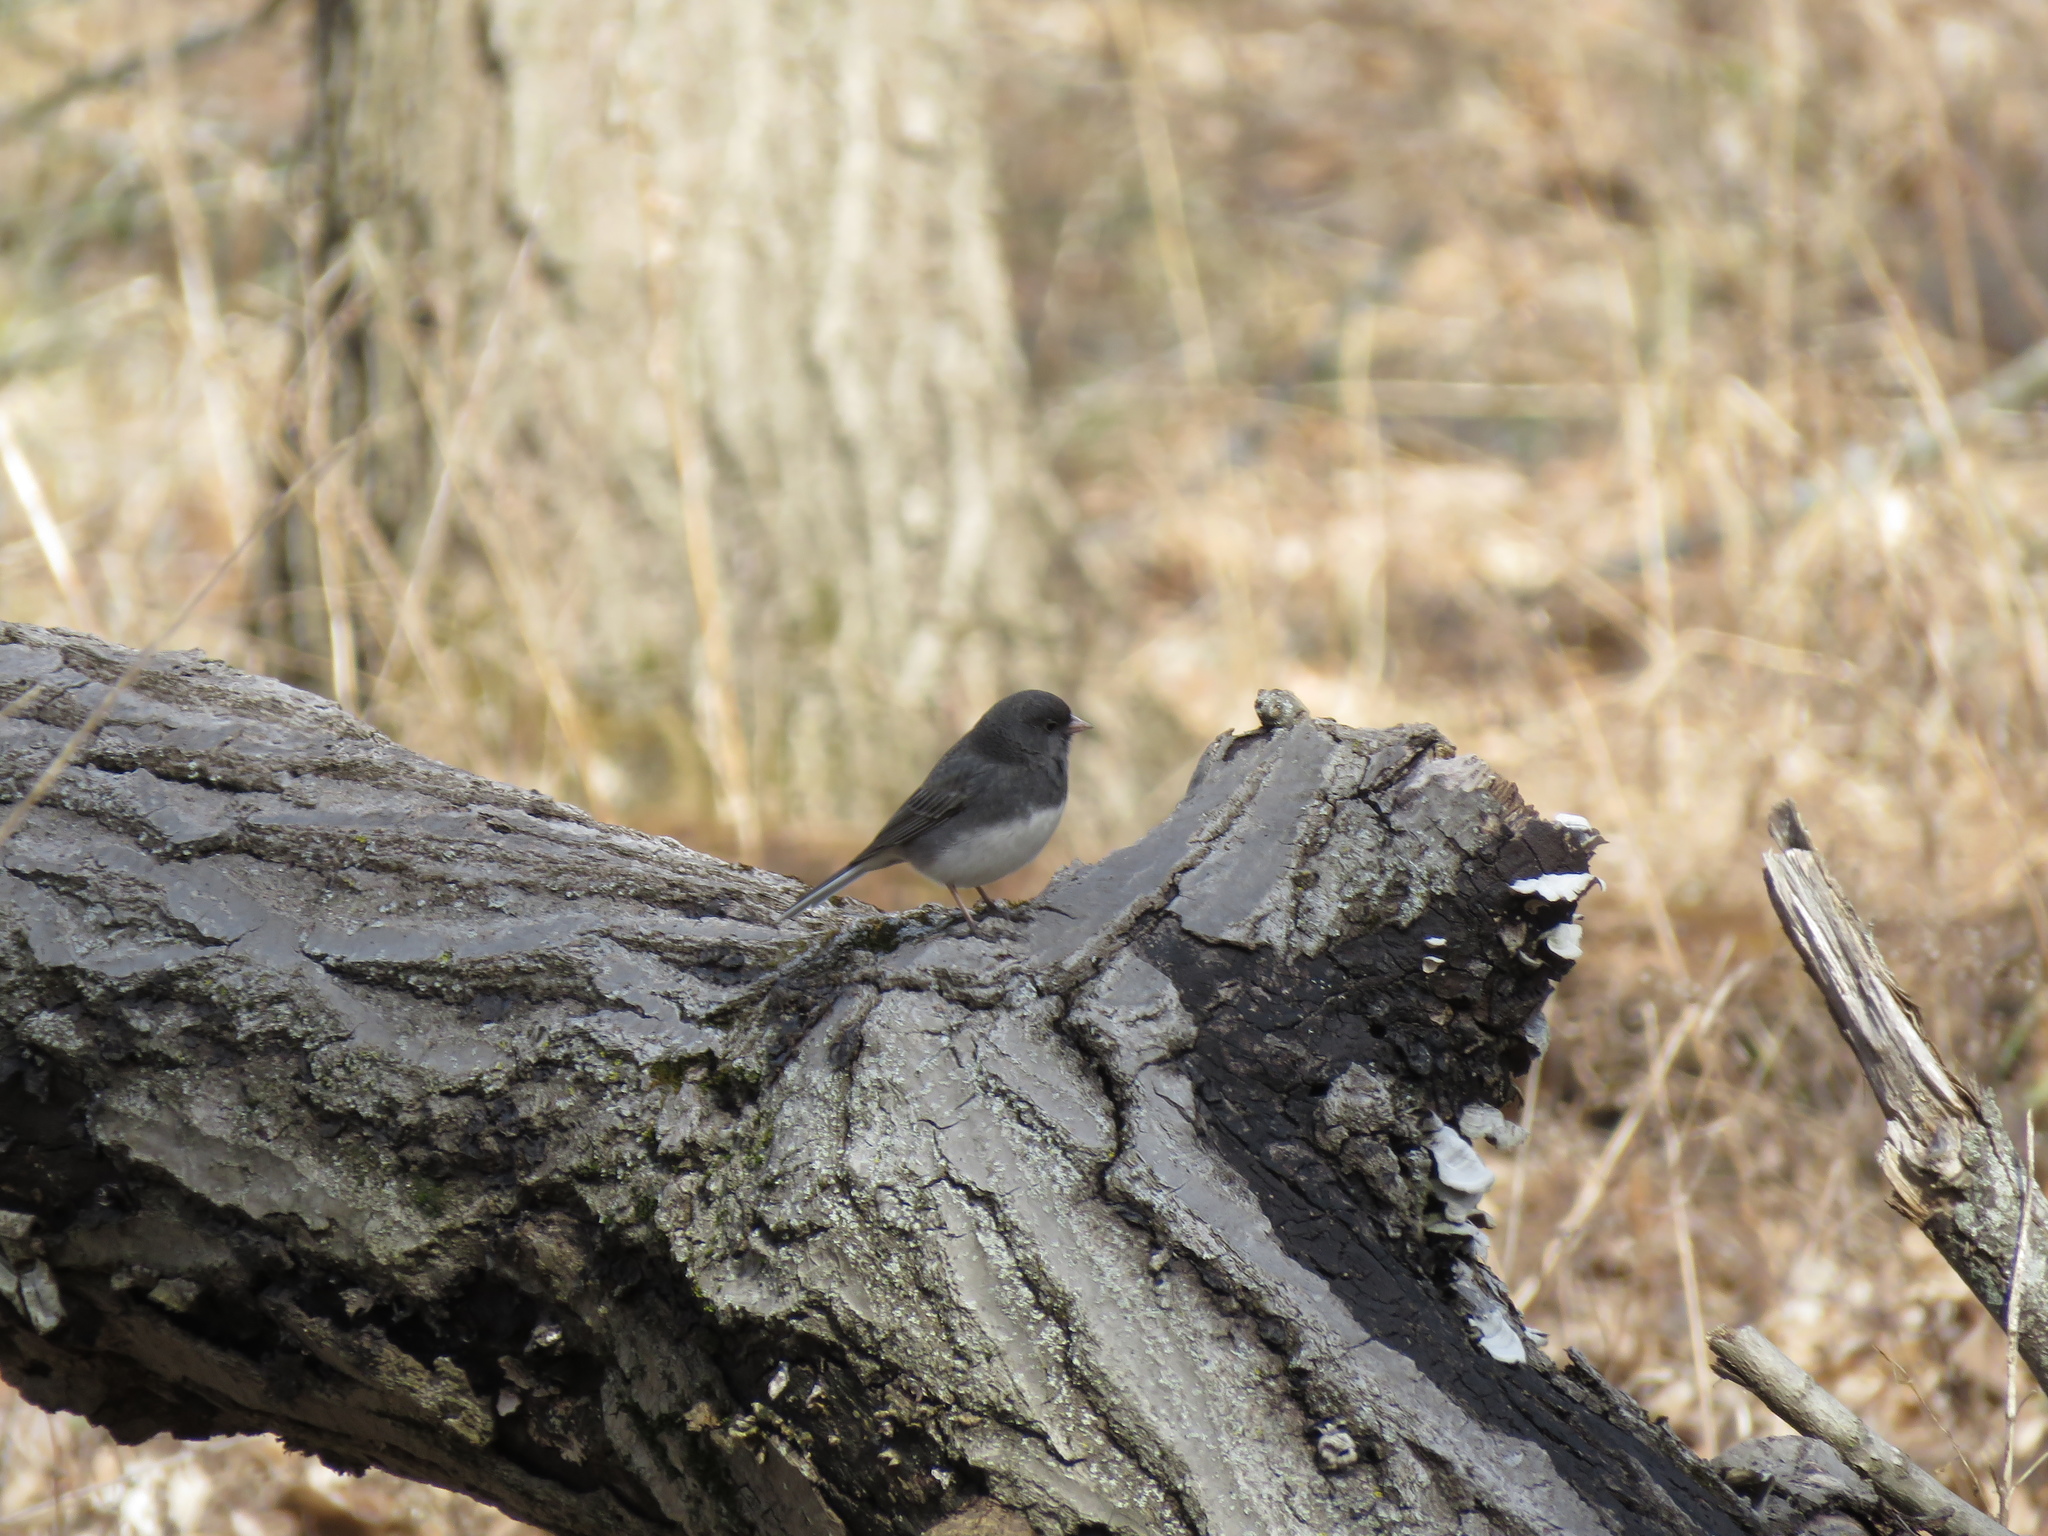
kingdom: Animalia
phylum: Chordata
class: Aves
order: Passeriformes
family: Passerellidae
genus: Junco
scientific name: Junco hyemalis
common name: Dark-eyed junco
